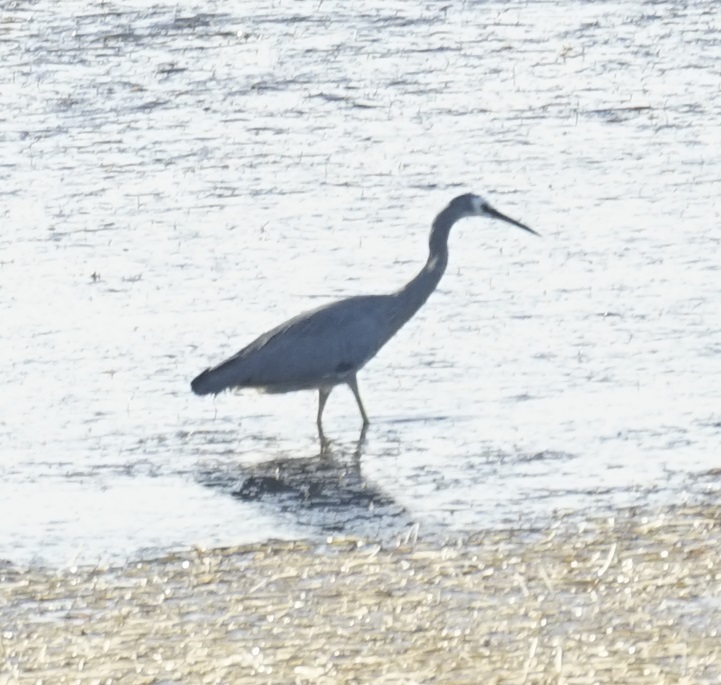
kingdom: Animalia
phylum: Chordata
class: Aves
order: Pelecaniformes
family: Ardeidae
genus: Egretta
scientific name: Egretta novaehollandiae
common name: White-faced heron
